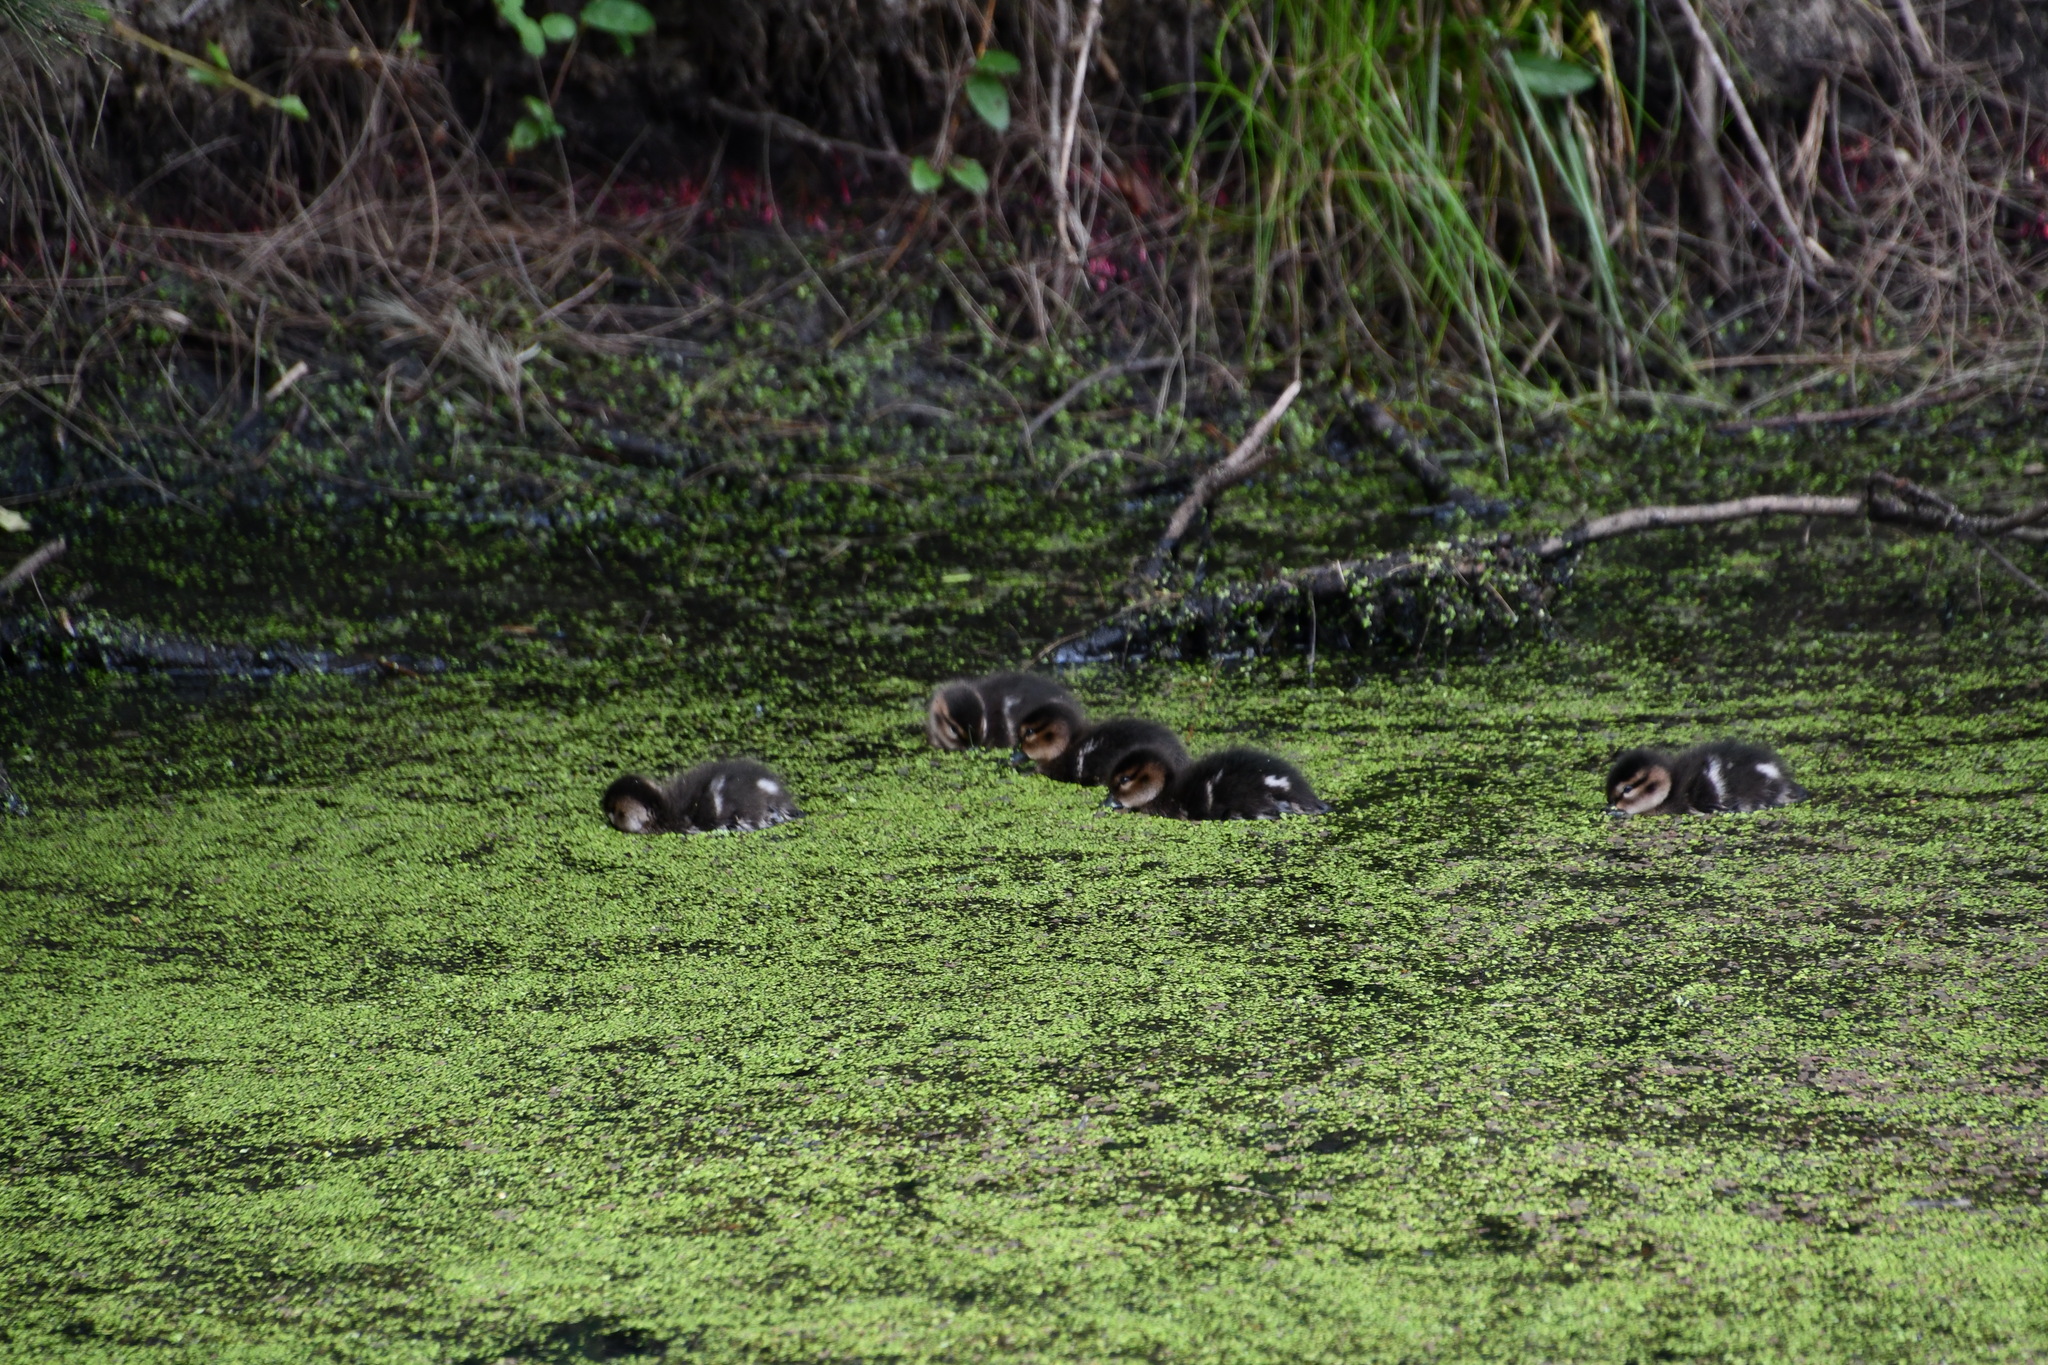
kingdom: Animalia
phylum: Chordata
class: Aves
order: Anseriformes
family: Anatidae
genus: Anas
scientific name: Anas castanea
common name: Chestnut teal
